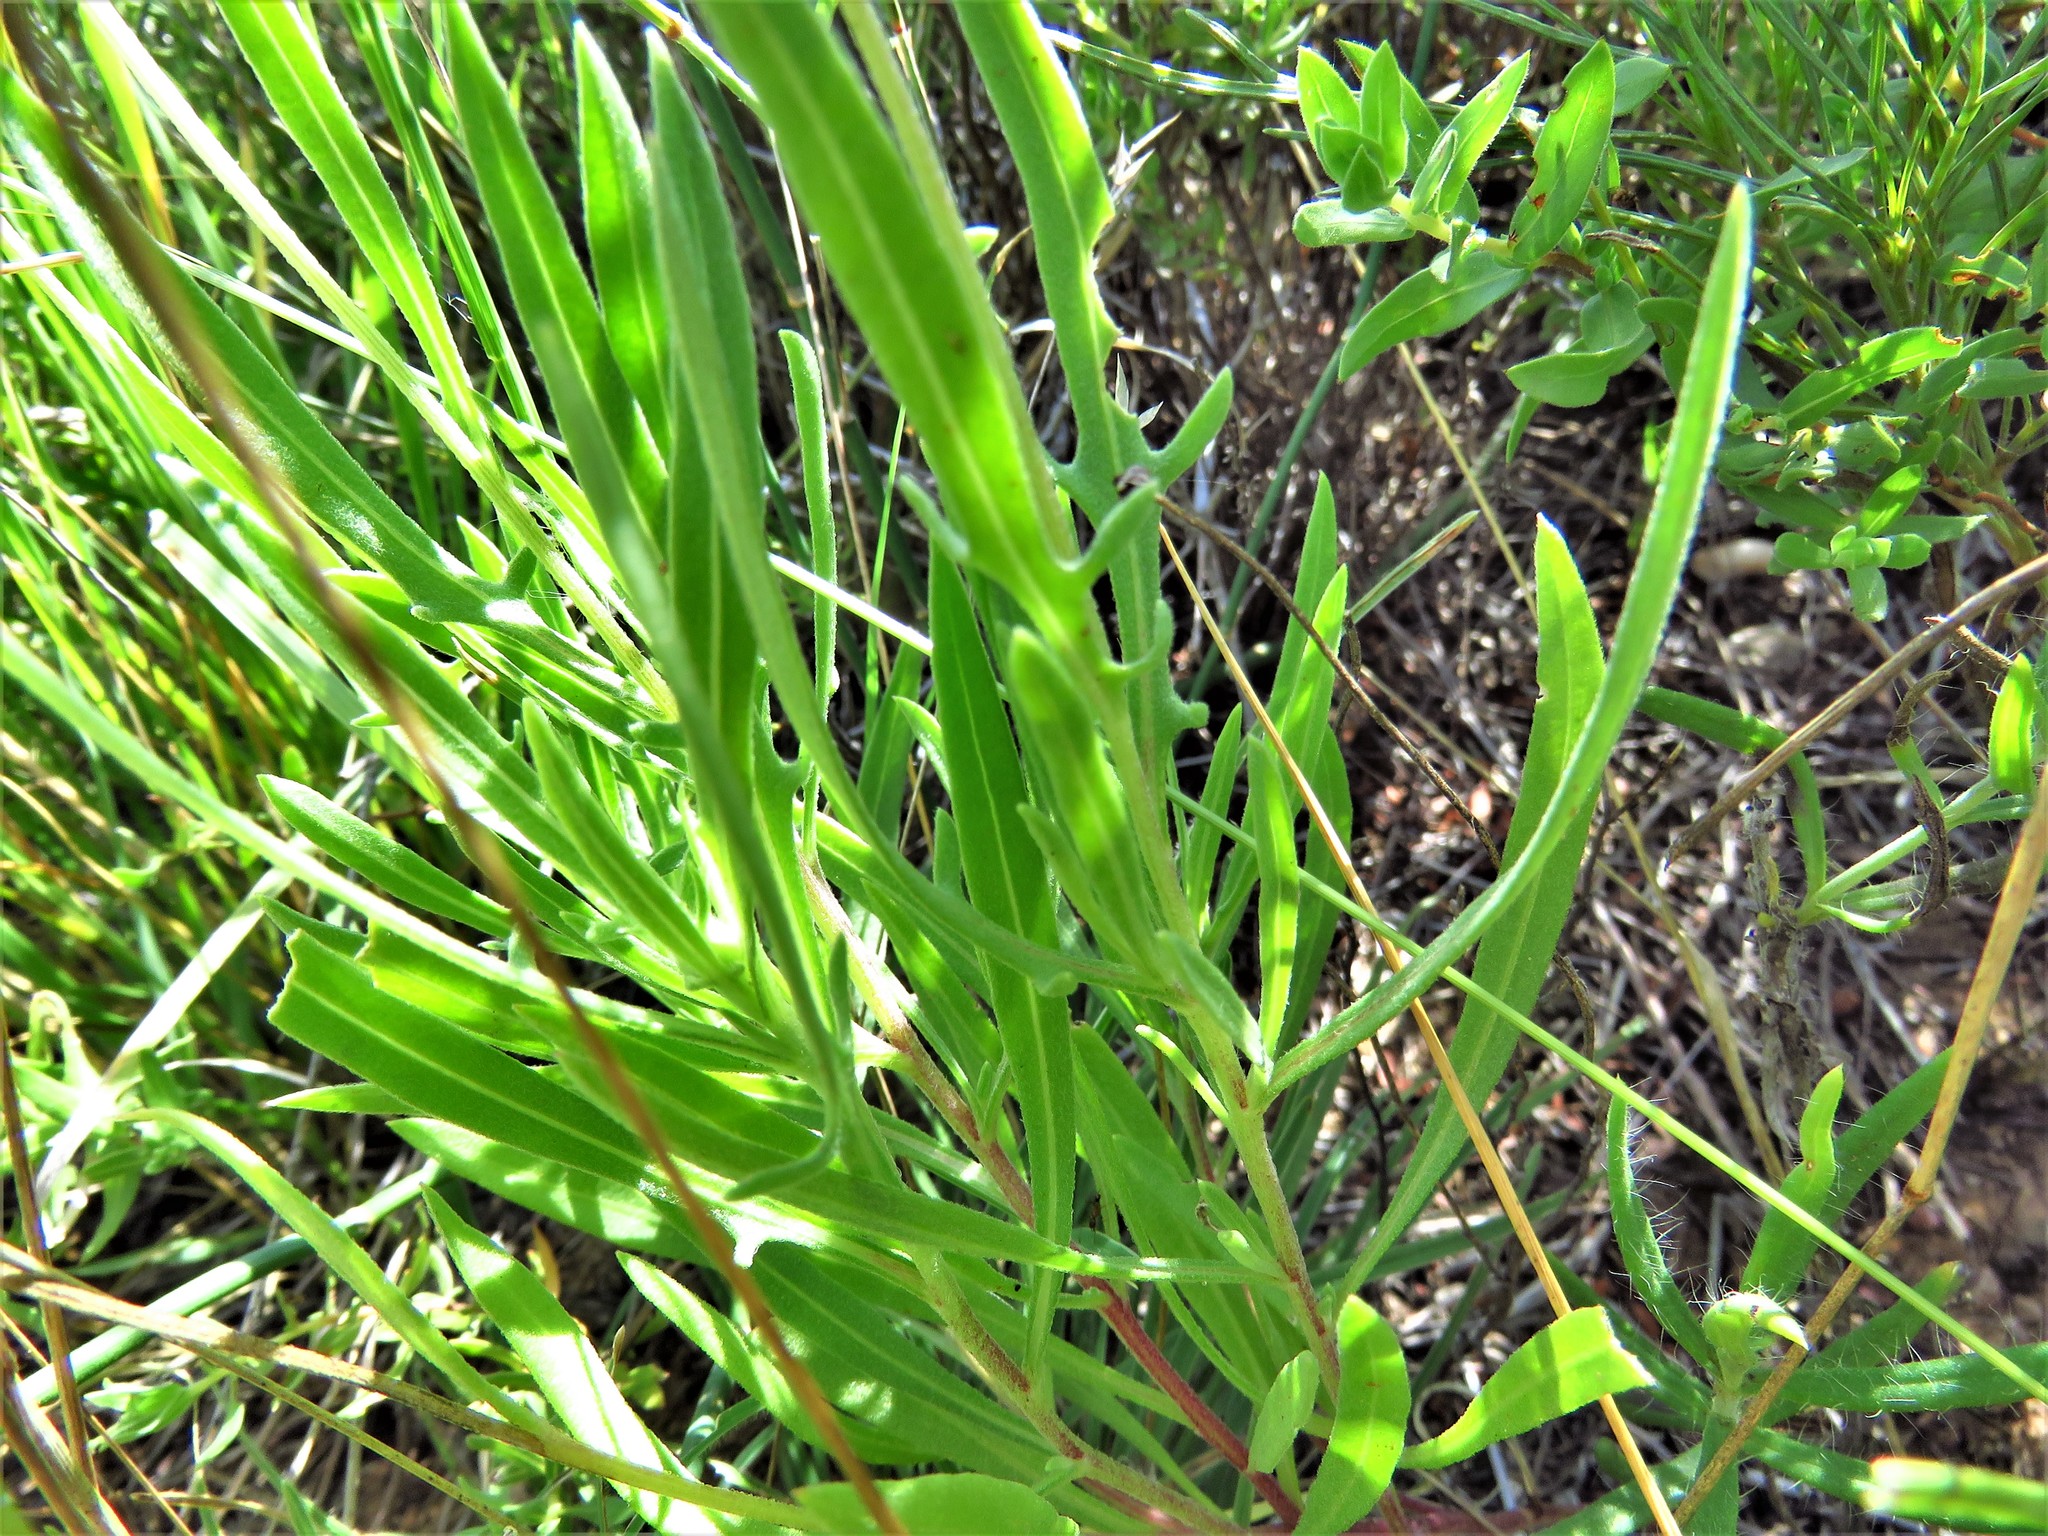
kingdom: Plantae
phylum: Tracheophyta
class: Magnoliopsida
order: Asterales
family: Asteraceae
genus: Gaillardia
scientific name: Gaillardia pinnatifida
